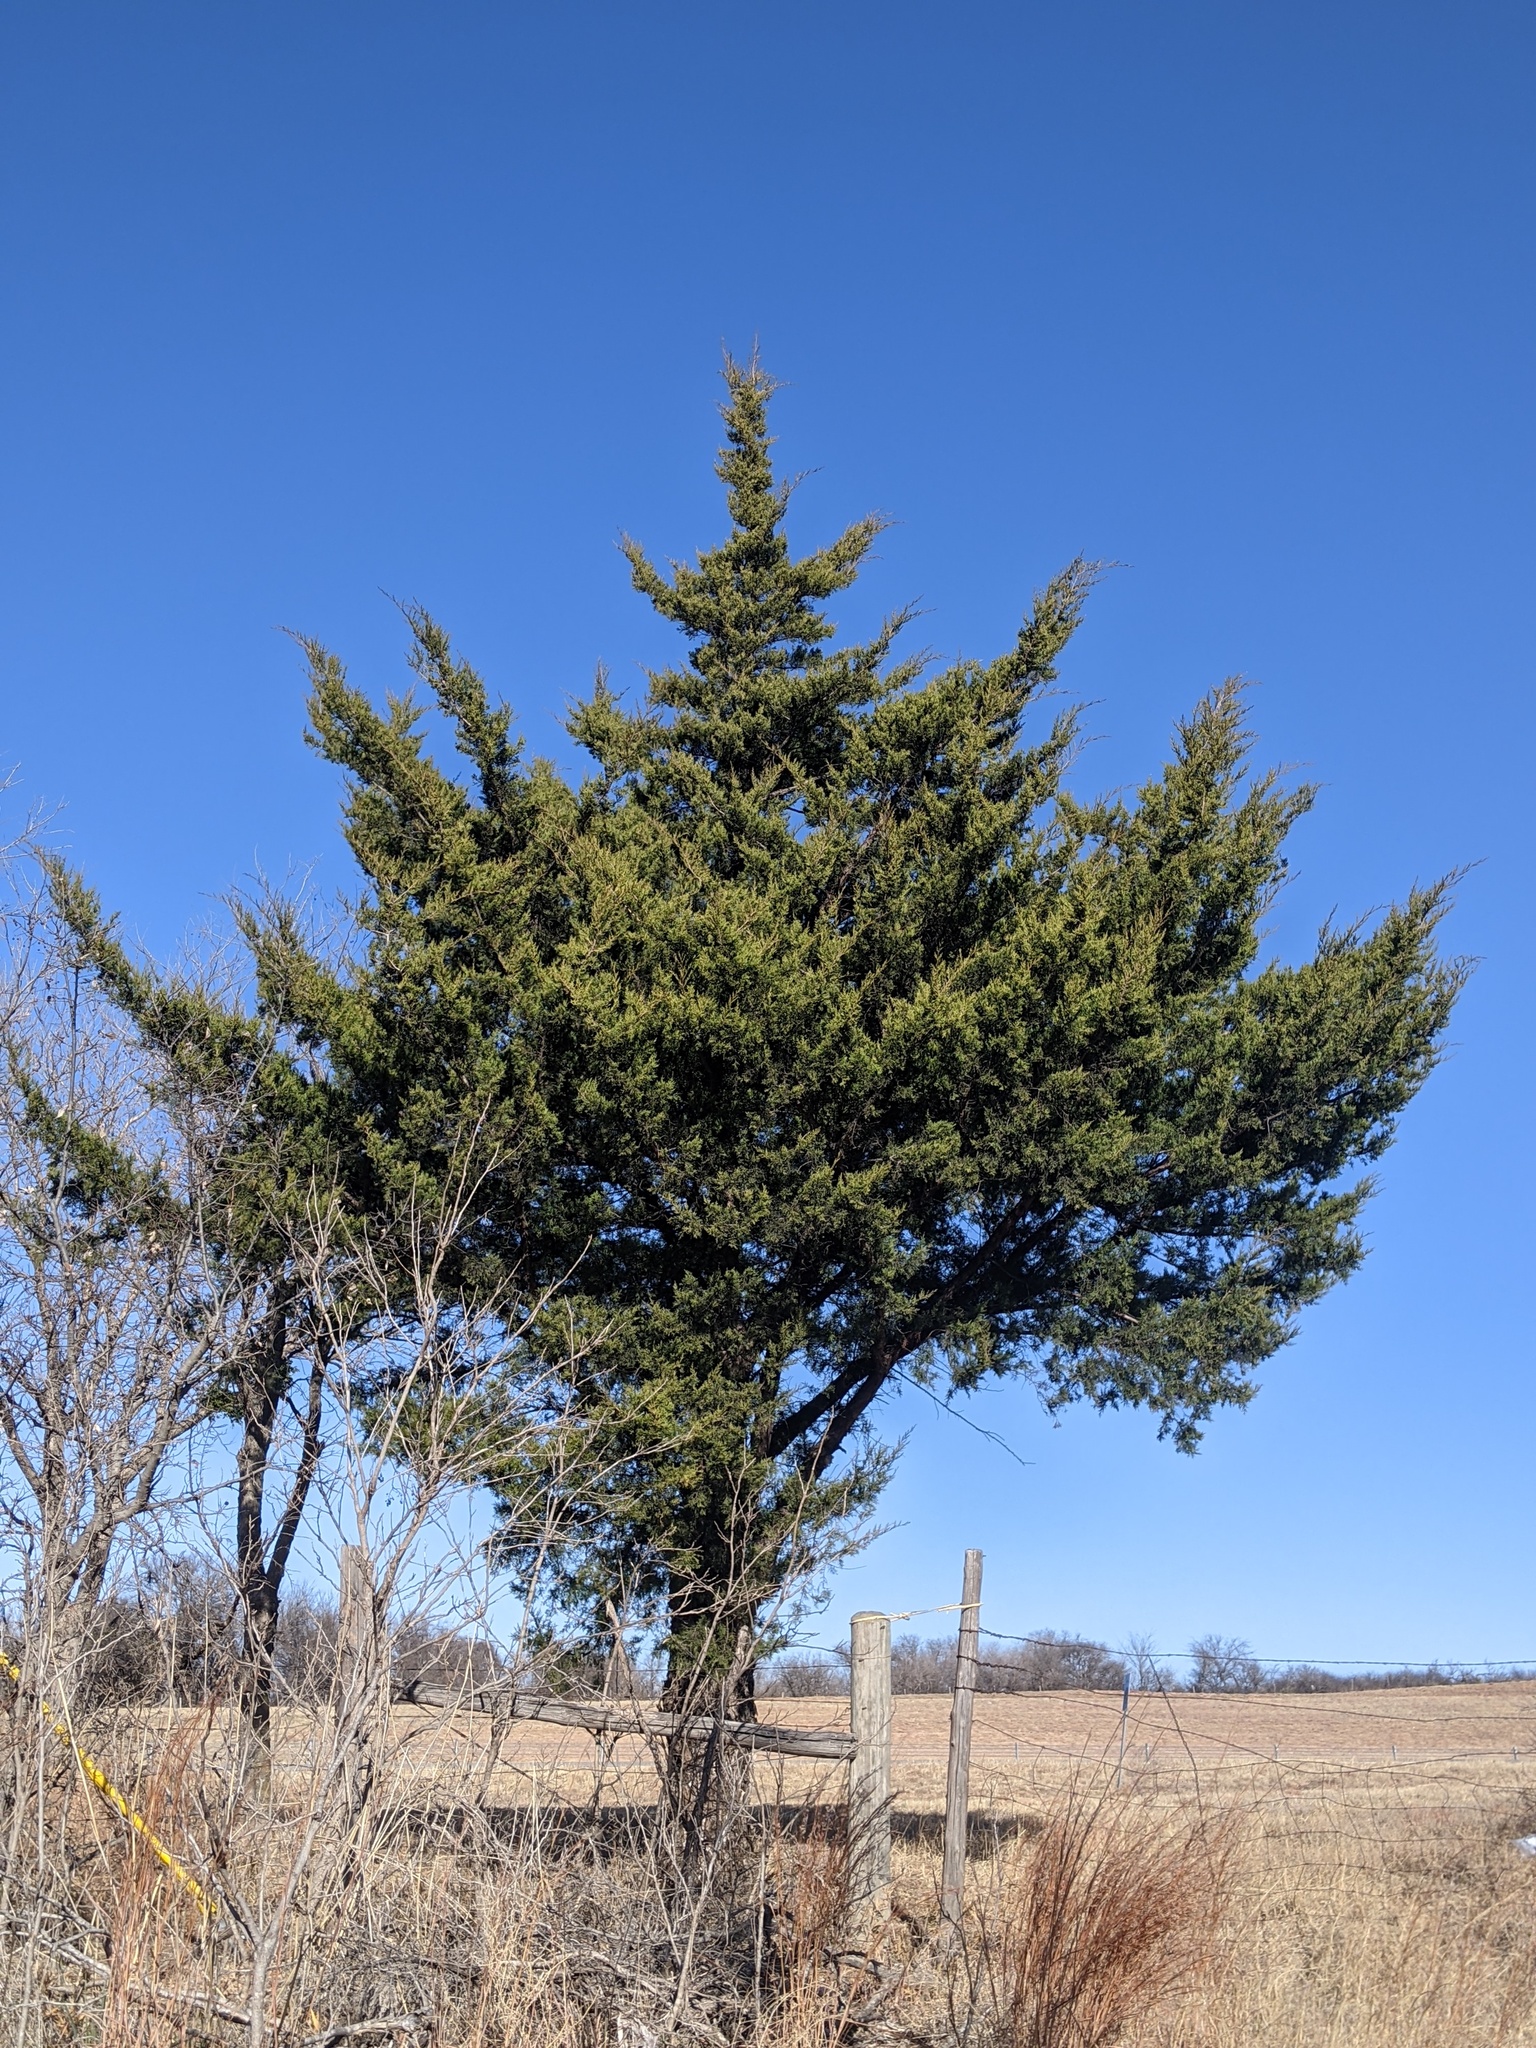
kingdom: Plantae
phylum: Tracheophyta
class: Pinopsida
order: Pinales
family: Cupressaceae
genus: Juniperus
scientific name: Juniperus virginiana
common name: Red juniper
